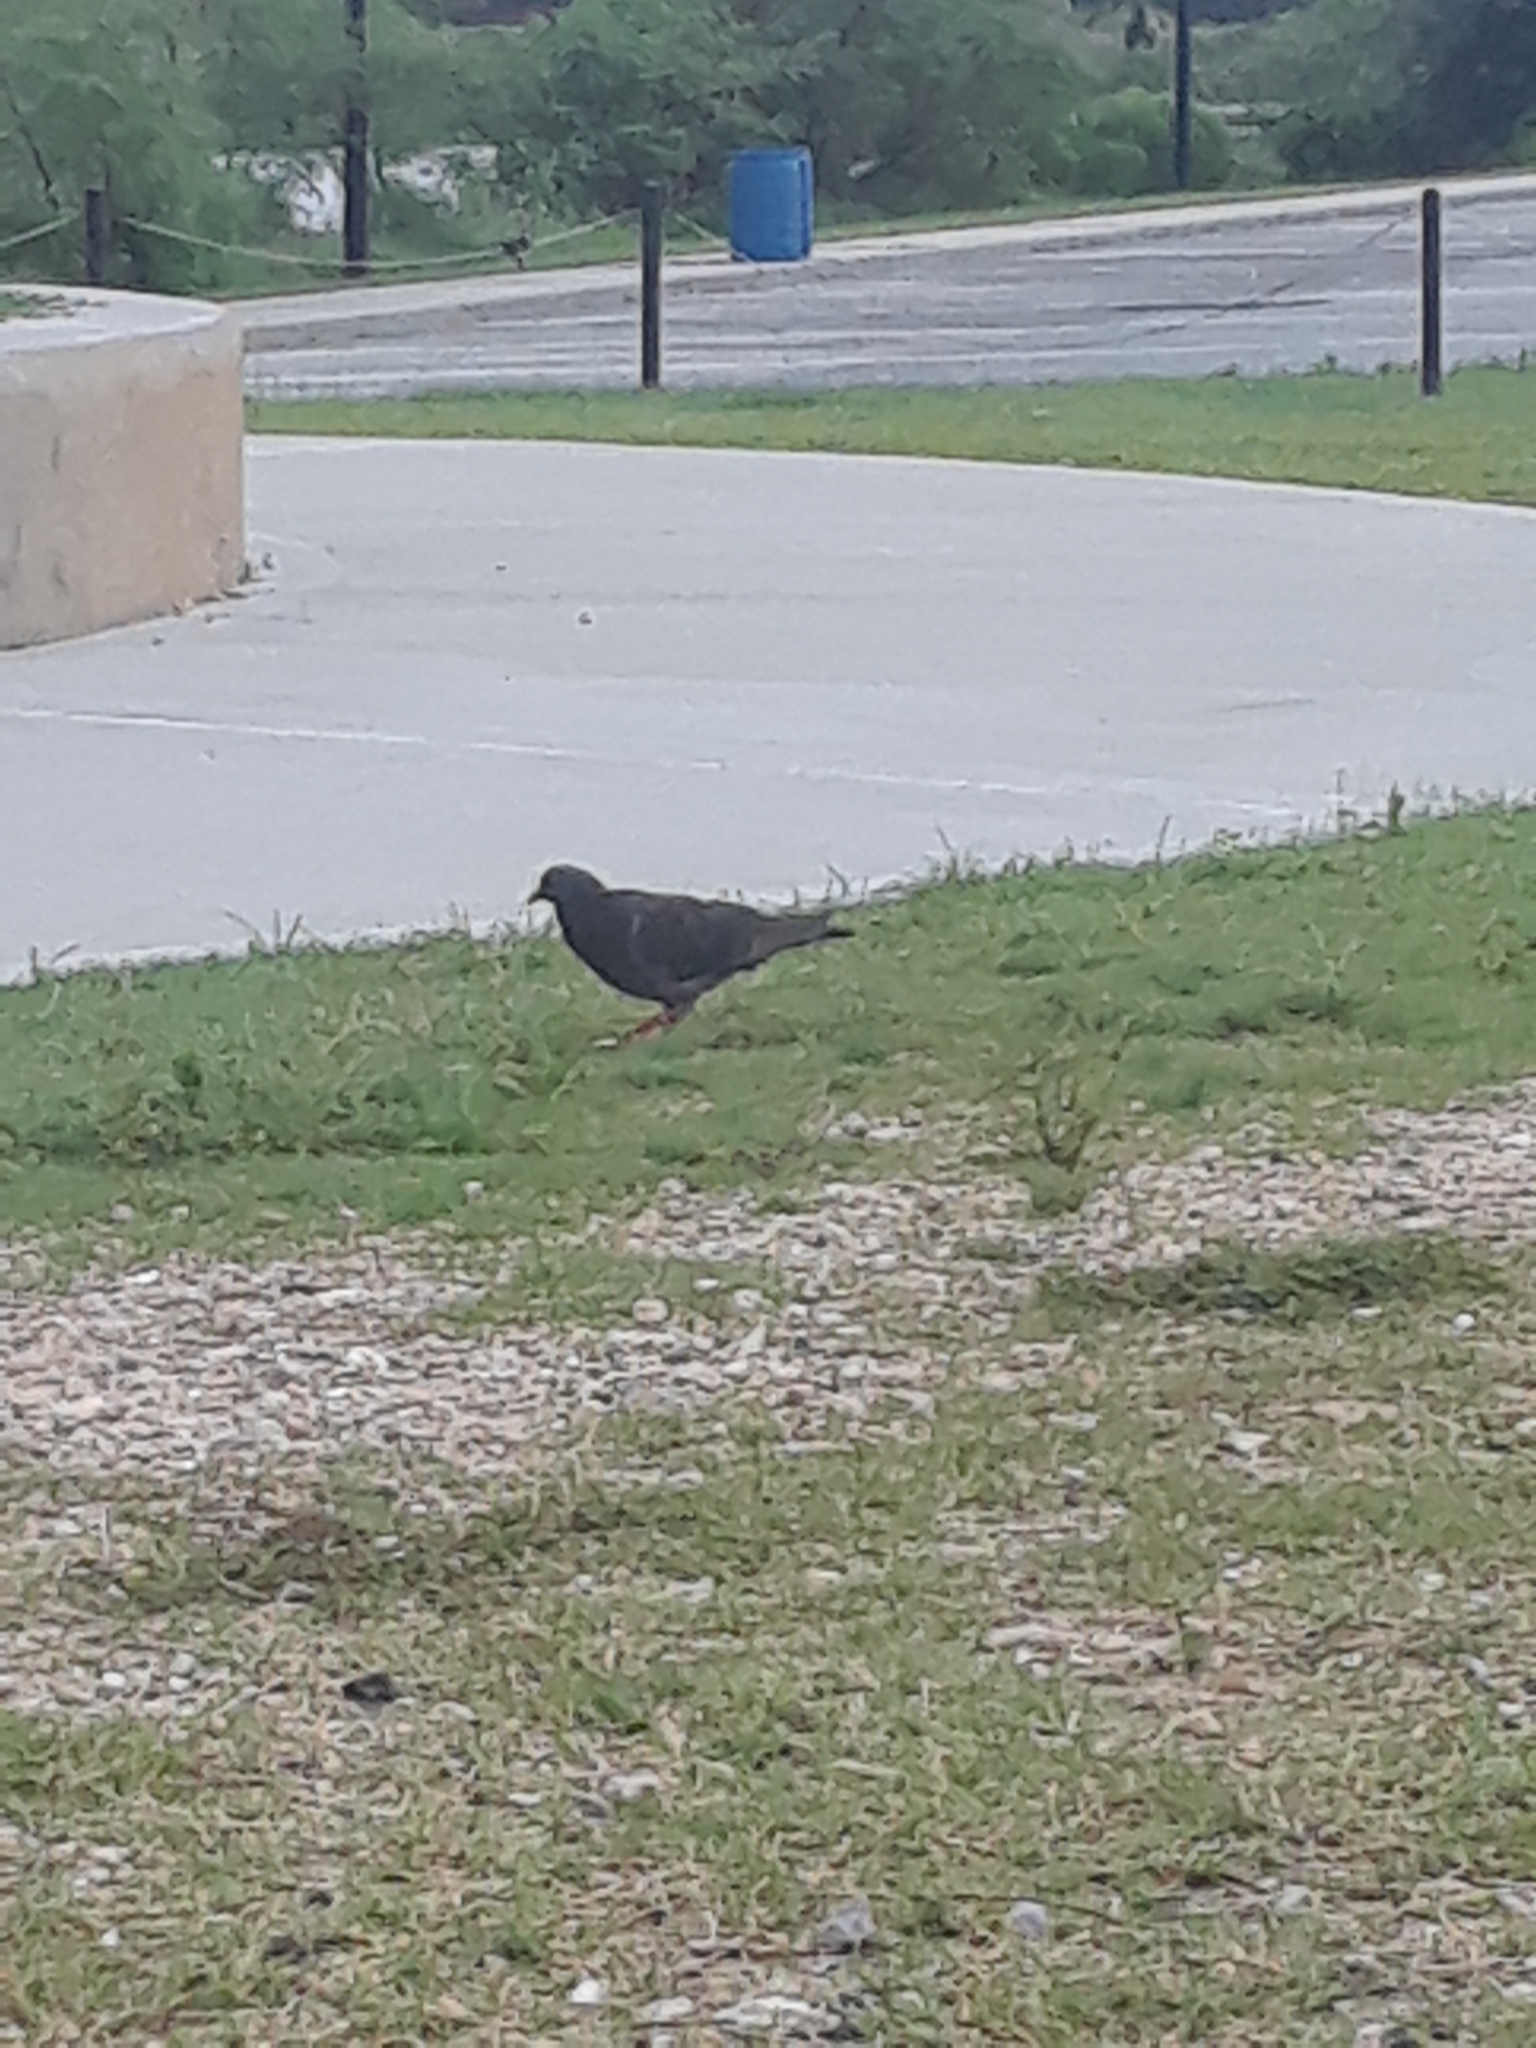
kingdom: Animalia
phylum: Chordata
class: Aves
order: Columbiformes
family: Columbidae
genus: Columba
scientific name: Columba livia
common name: Rock pigeon
